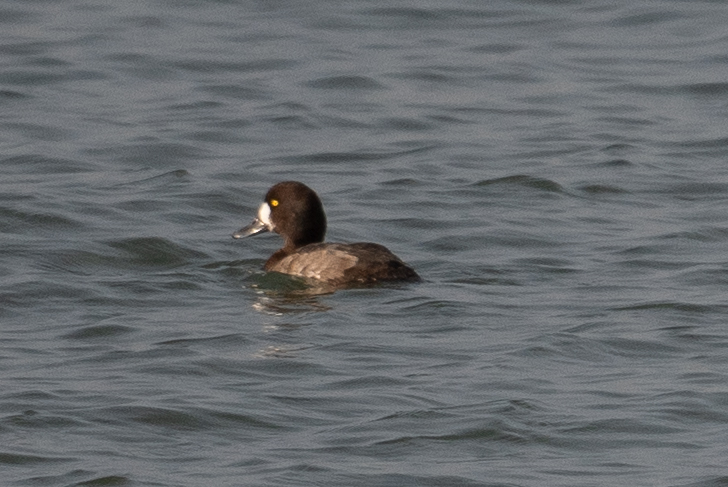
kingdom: Animalia
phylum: Chordata
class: Aves
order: Anseriformes
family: Anatidae
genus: Aythya
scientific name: Aythya marila
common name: Greater scaup
